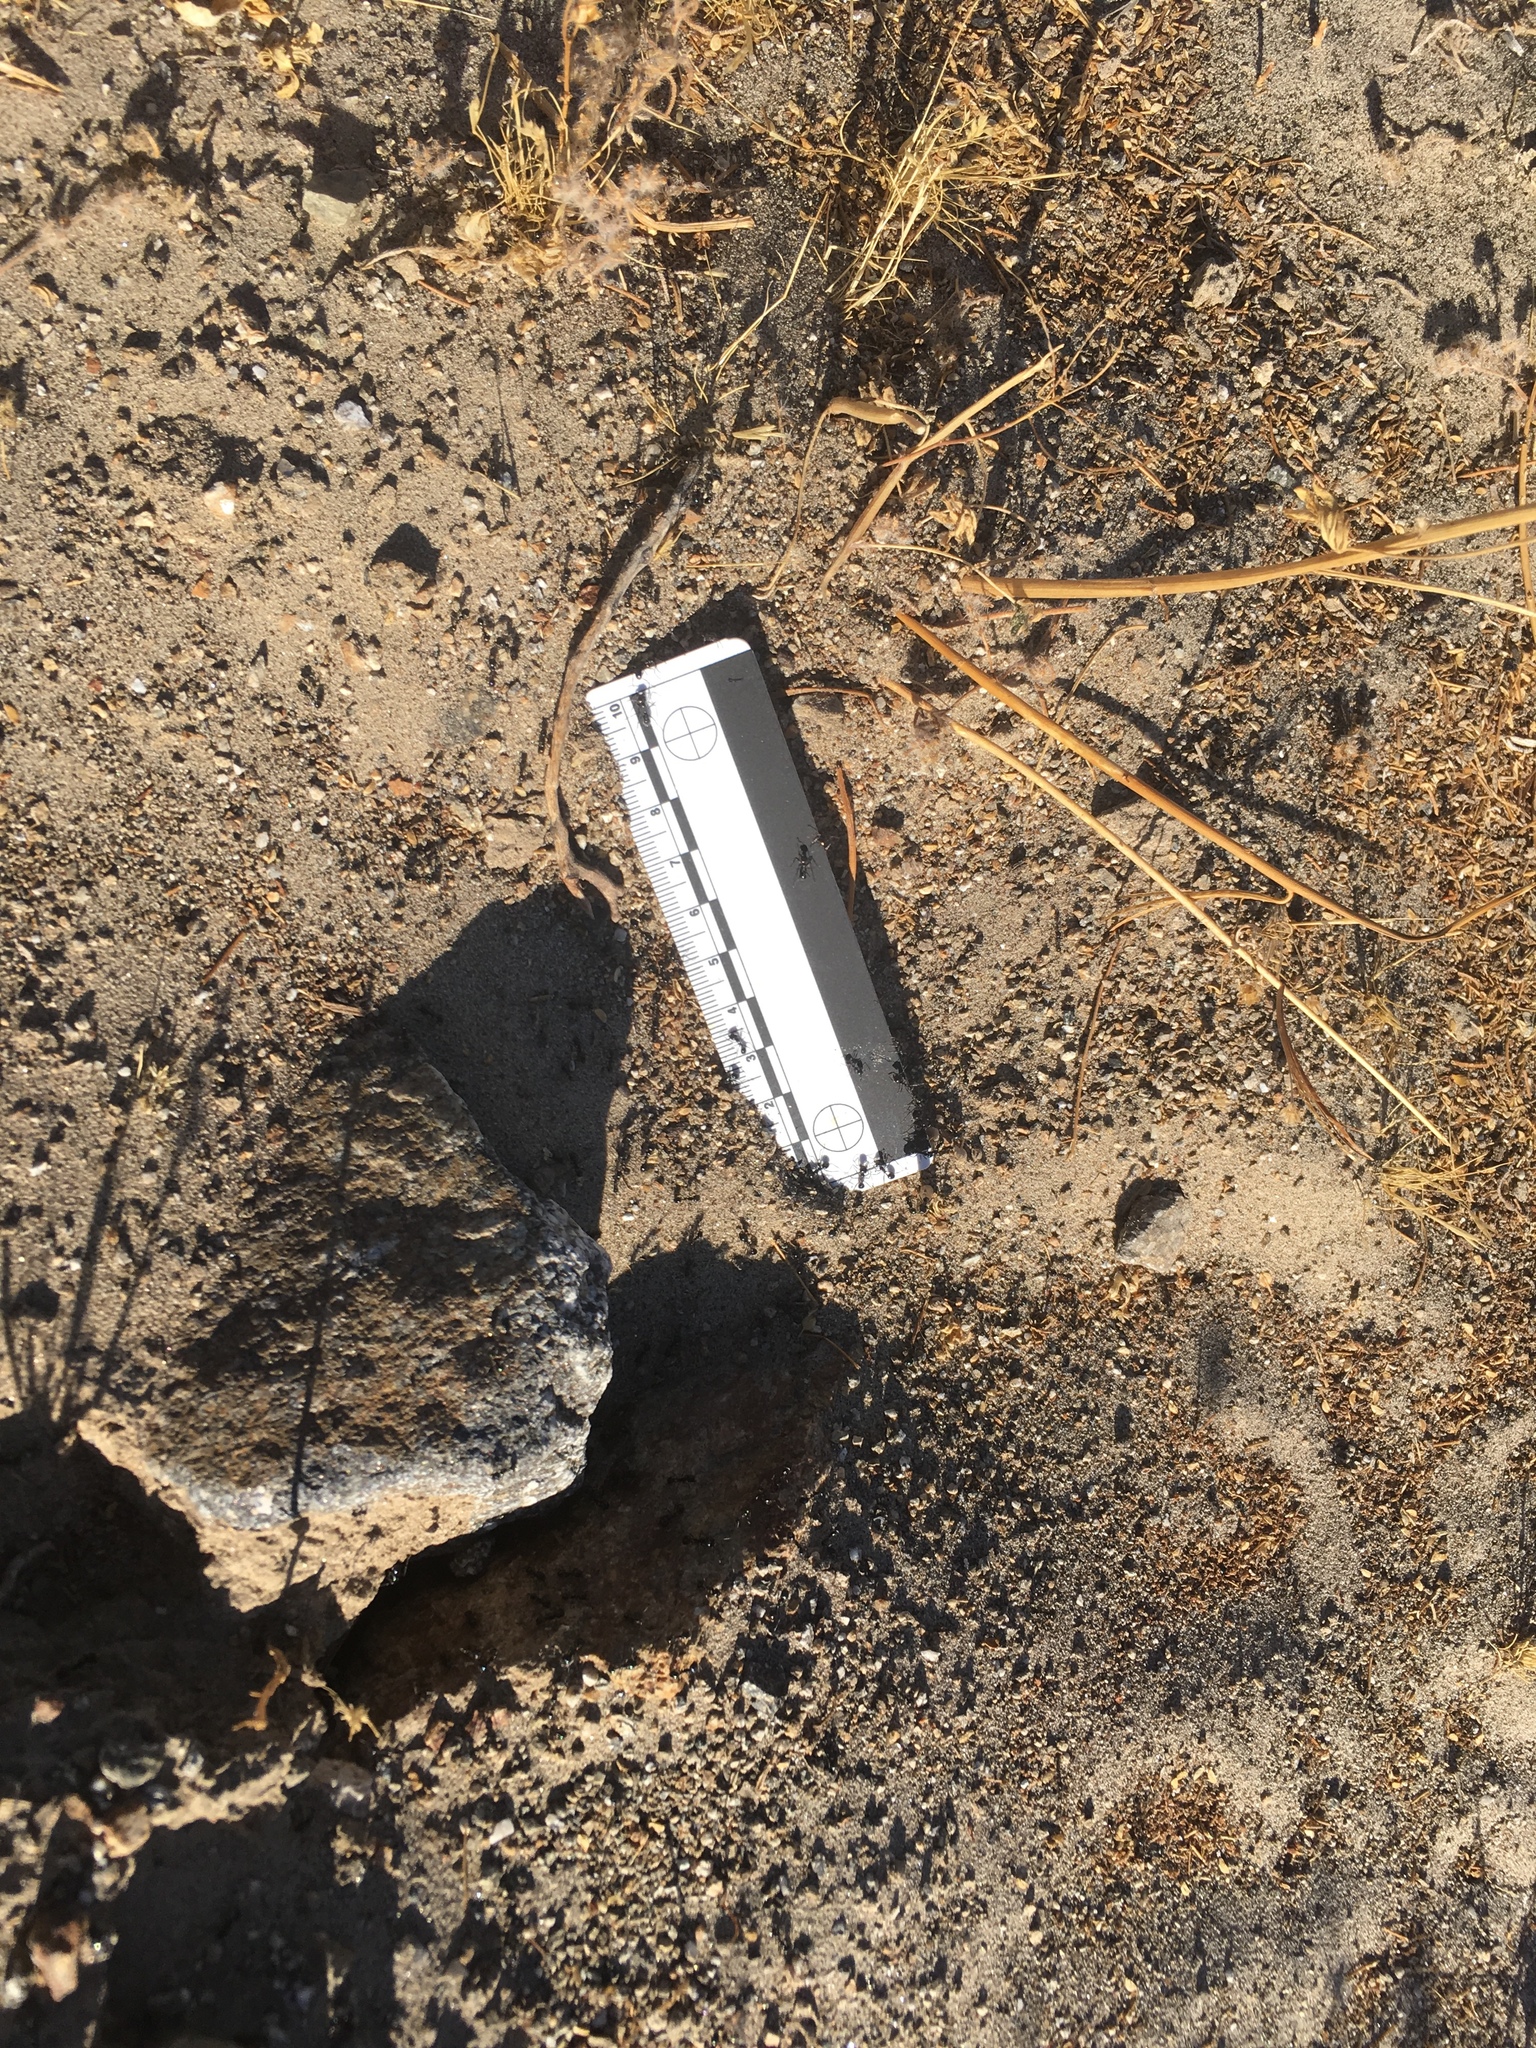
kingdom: Animalia
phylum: Arthropoda
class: Insecta
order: Hymenoptera
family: Formicidae
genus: Messor
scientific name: Messor pergandei
